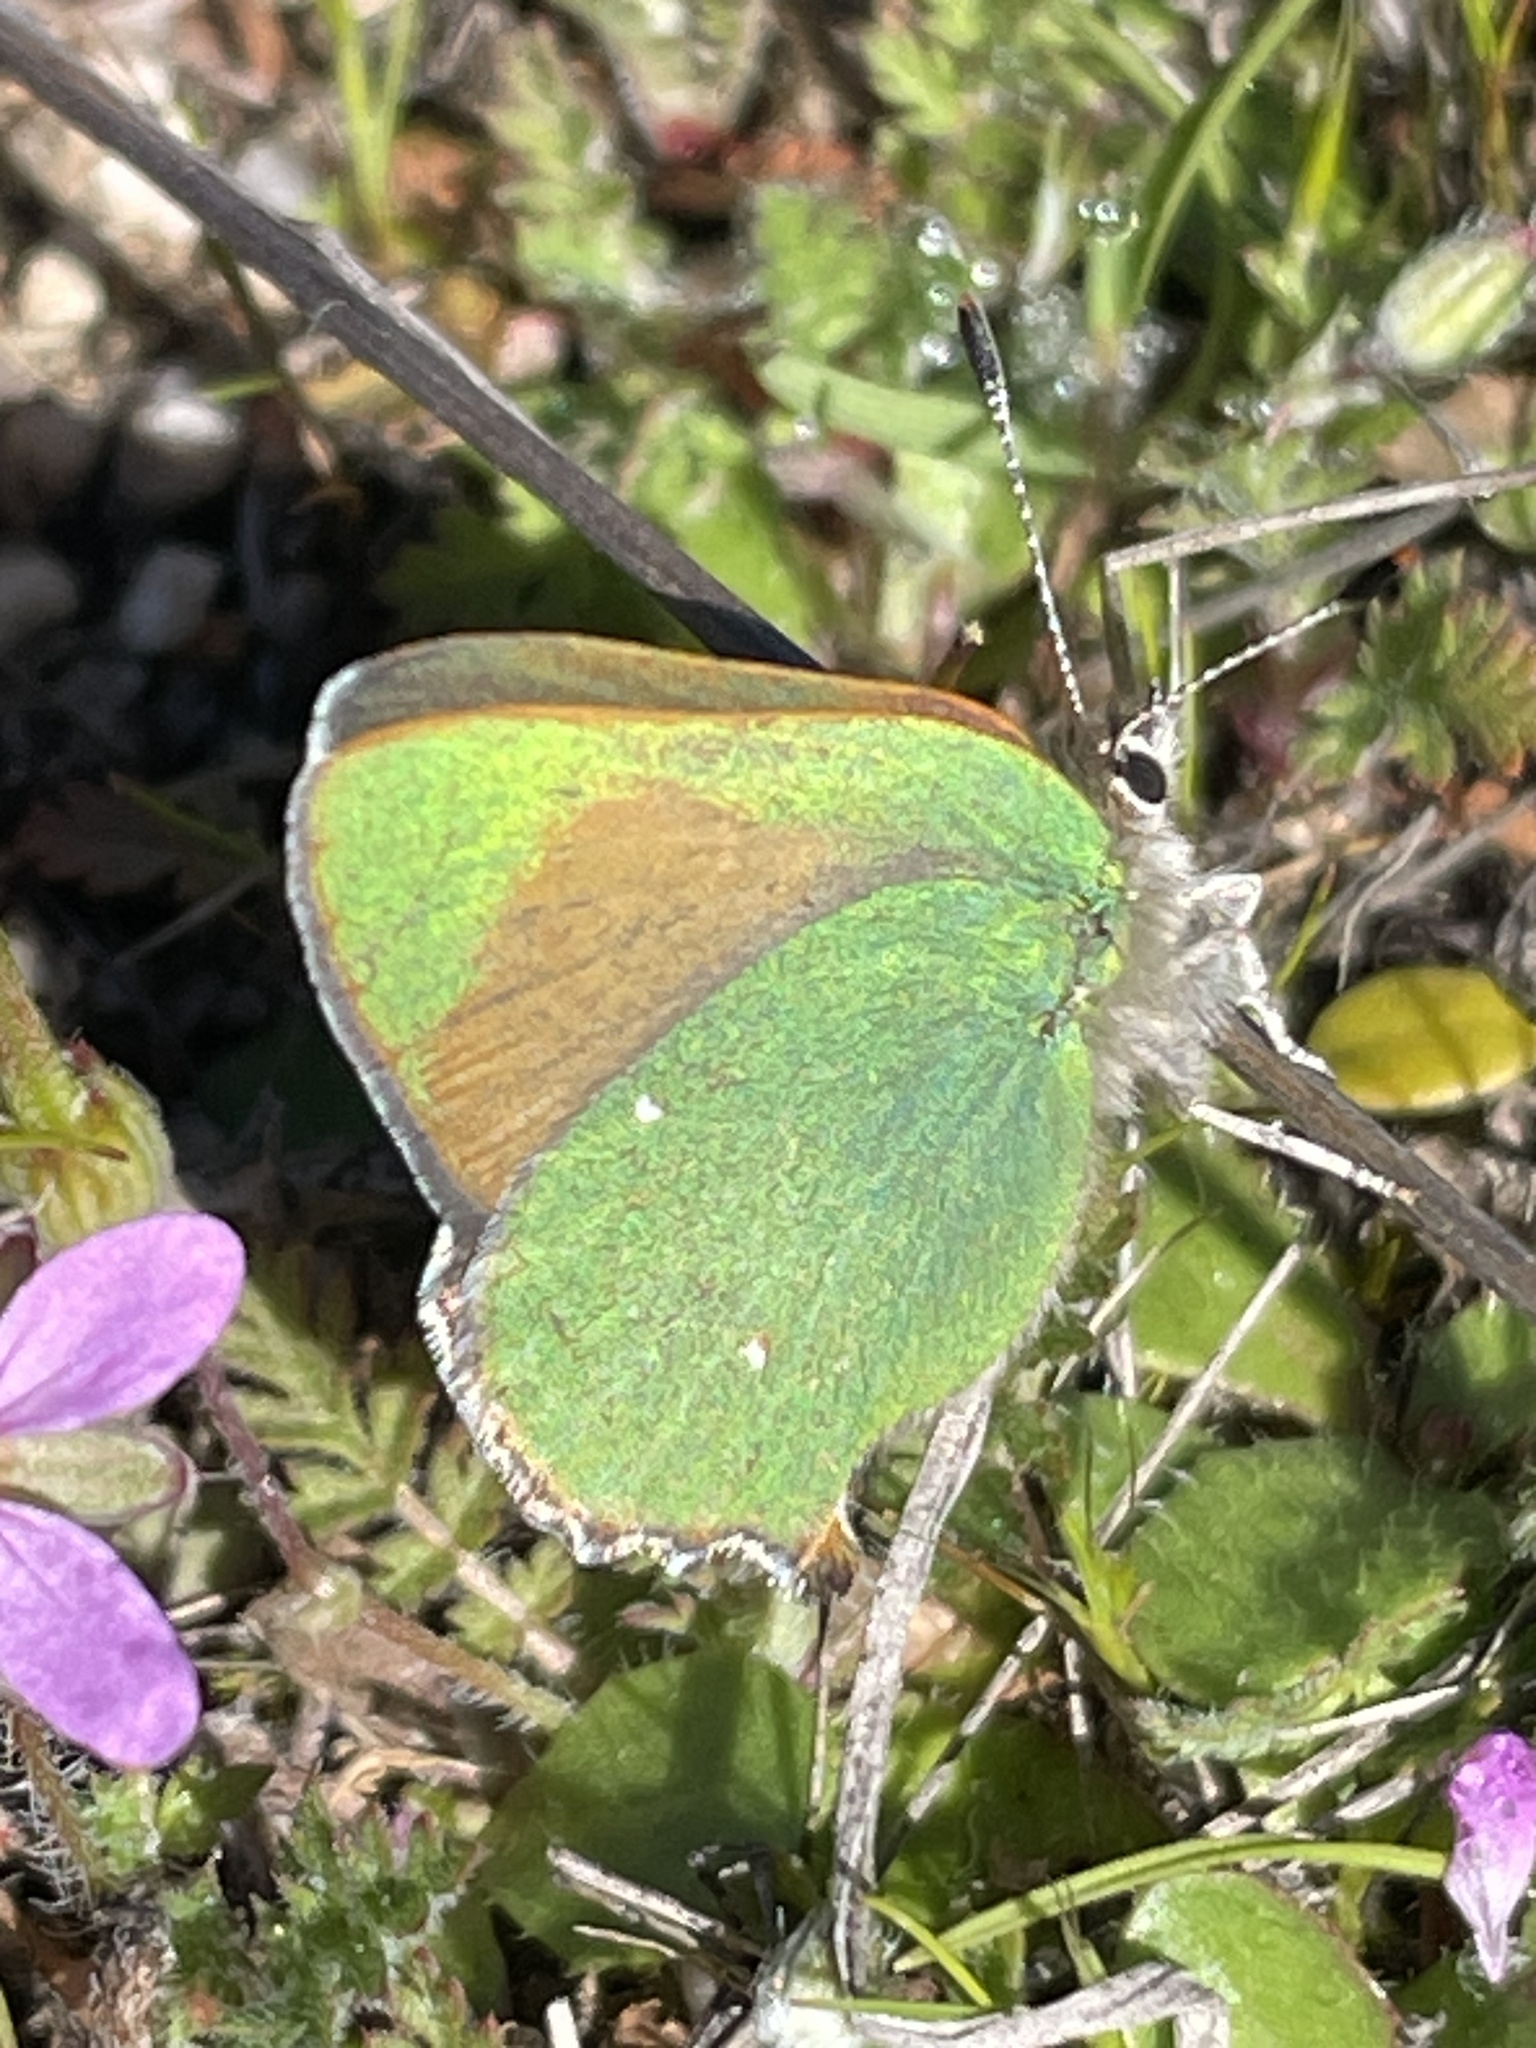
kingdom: Animalia
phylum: Arthropoda
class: Insecta
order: Lepidoptera
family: Lycaenidae
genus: Callophrys
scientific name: Callophrys dumetorum
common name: Bramble hairstreak
